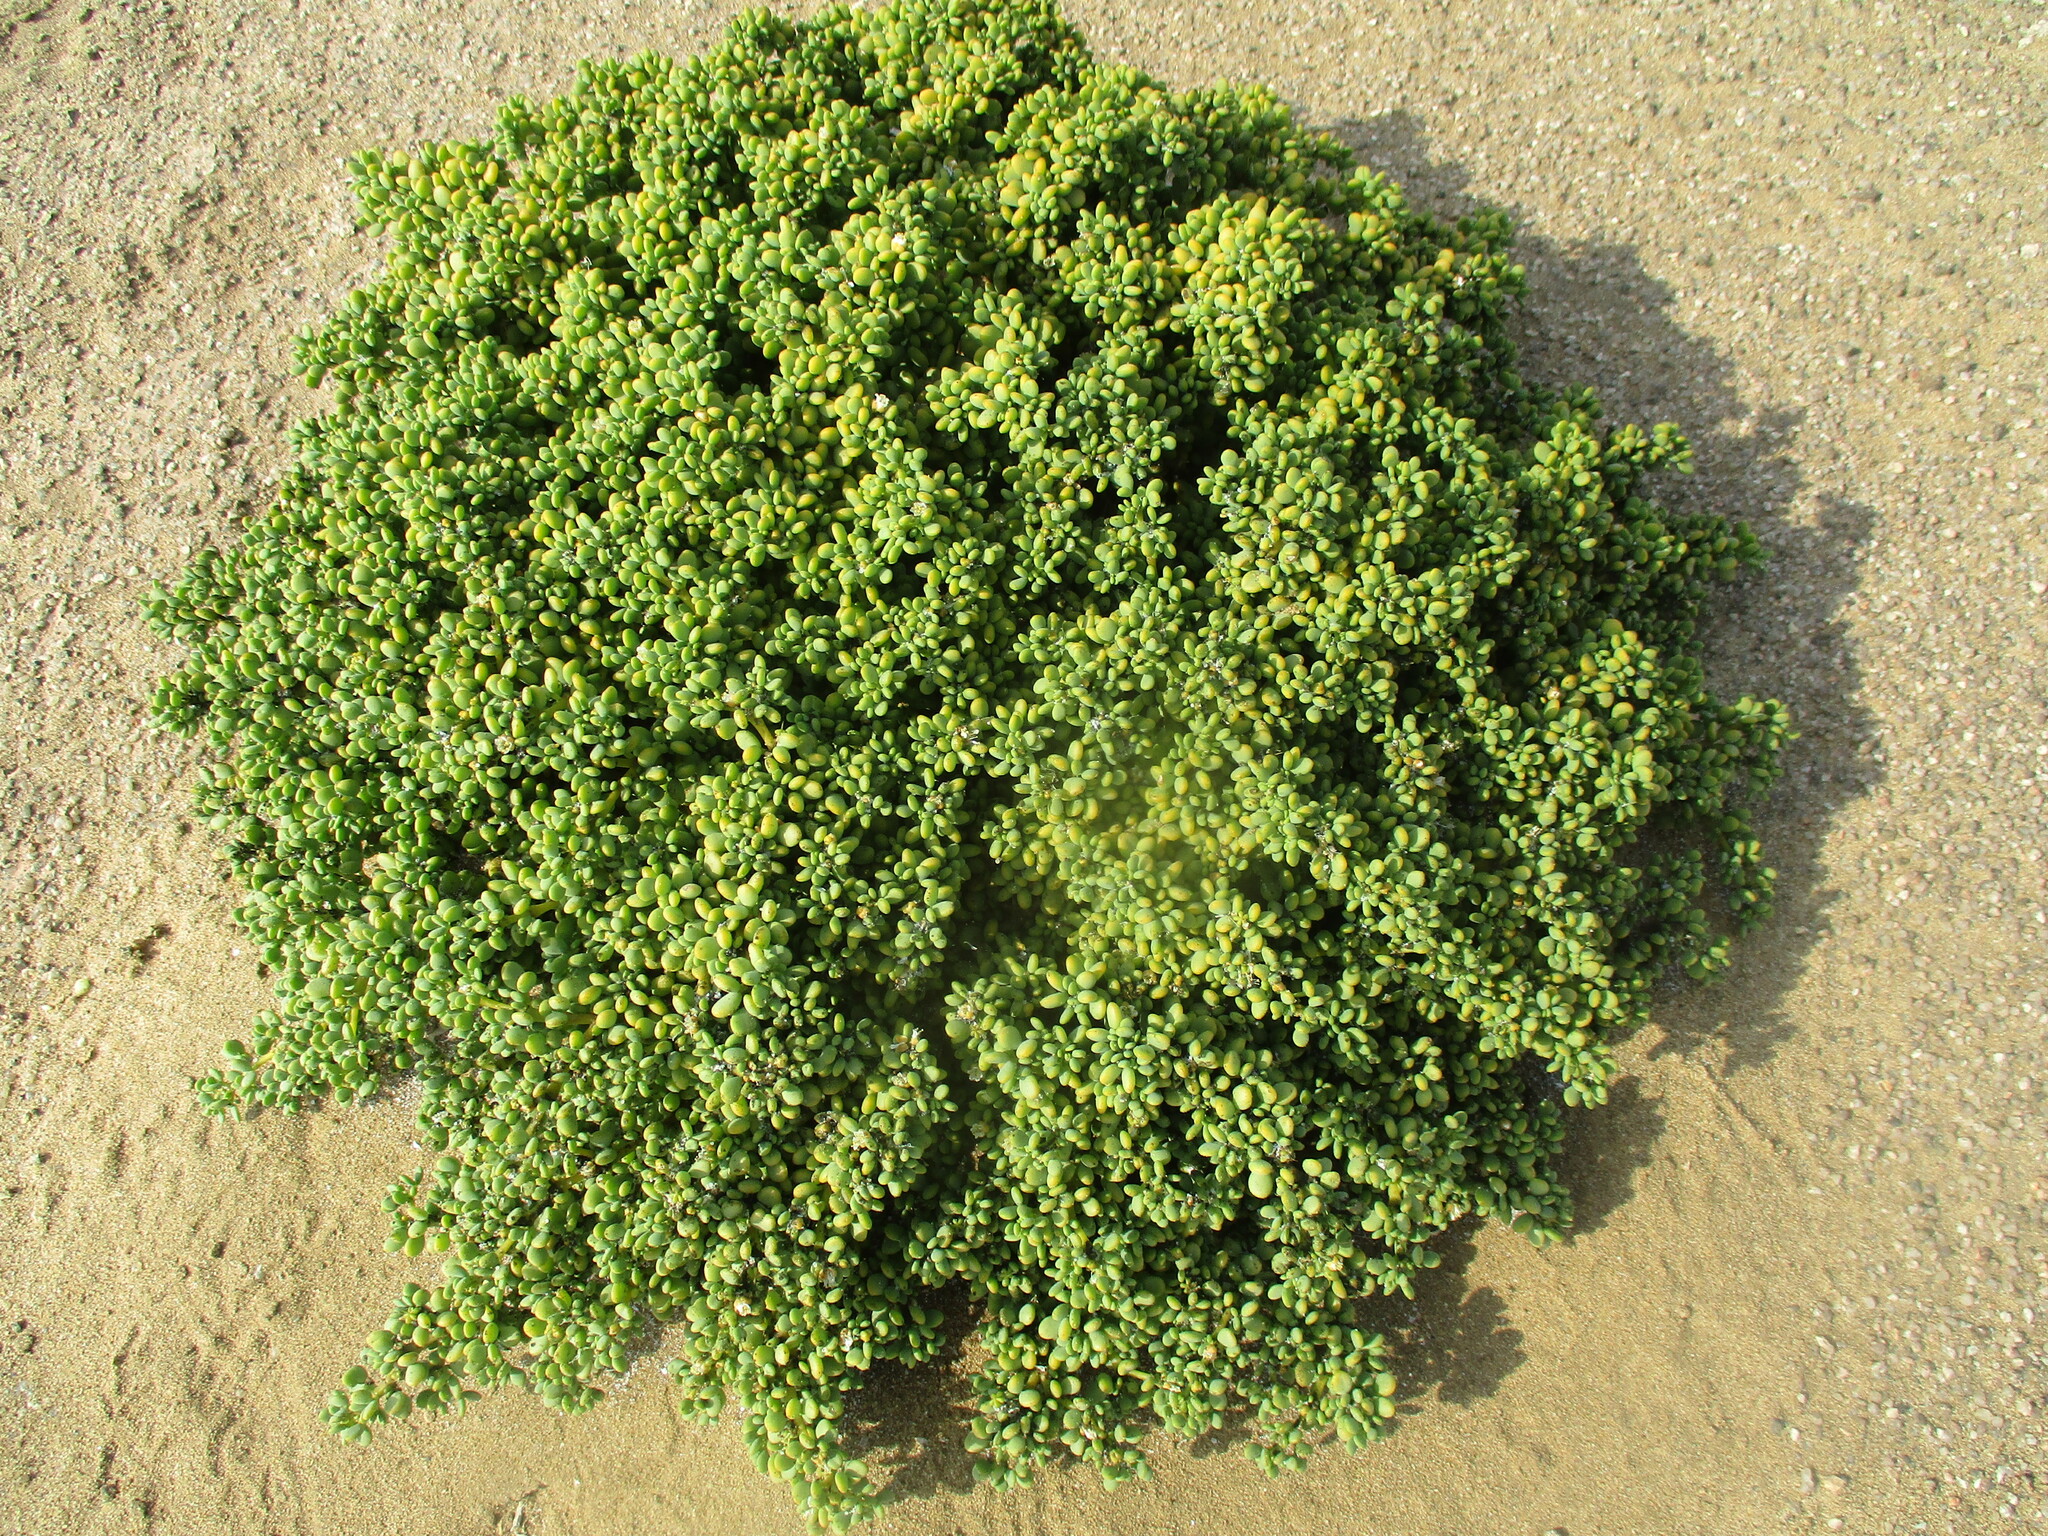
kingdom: Plantae
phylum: Tracheophyta
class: Magnoliopsida
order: Zygophyllales
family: Zygophyllaceae
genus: Tetraena
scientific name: Tetraena clavata
